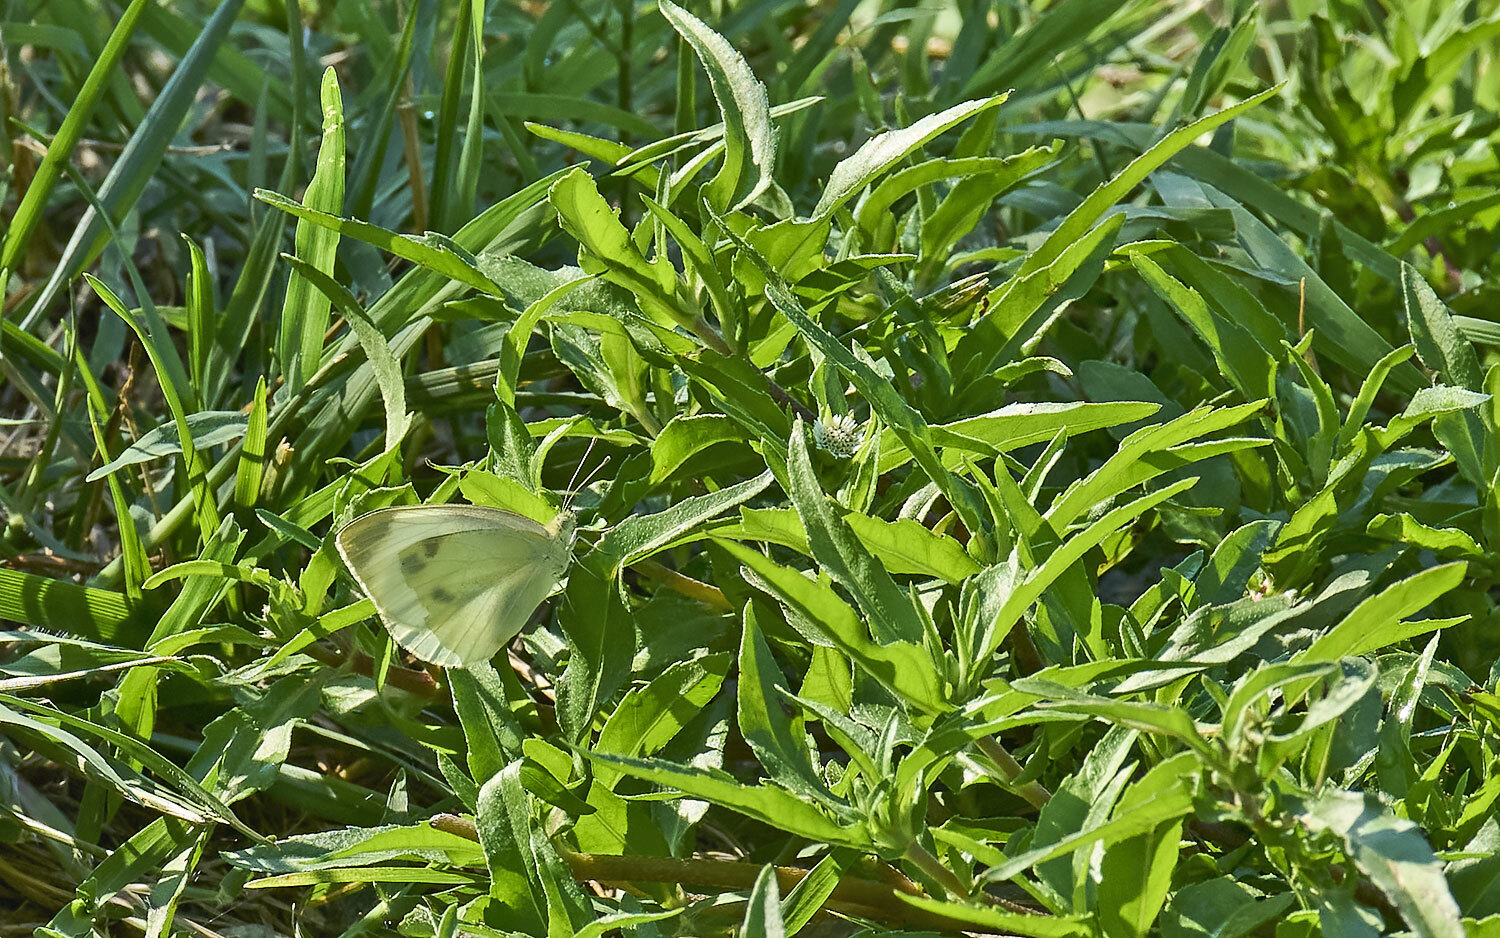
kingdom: Animalia
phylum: Arthropoda
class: Insecta
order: Lepidoptera
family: Pieridae
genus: Pieris
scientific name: Pieris rapae
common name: Small white
